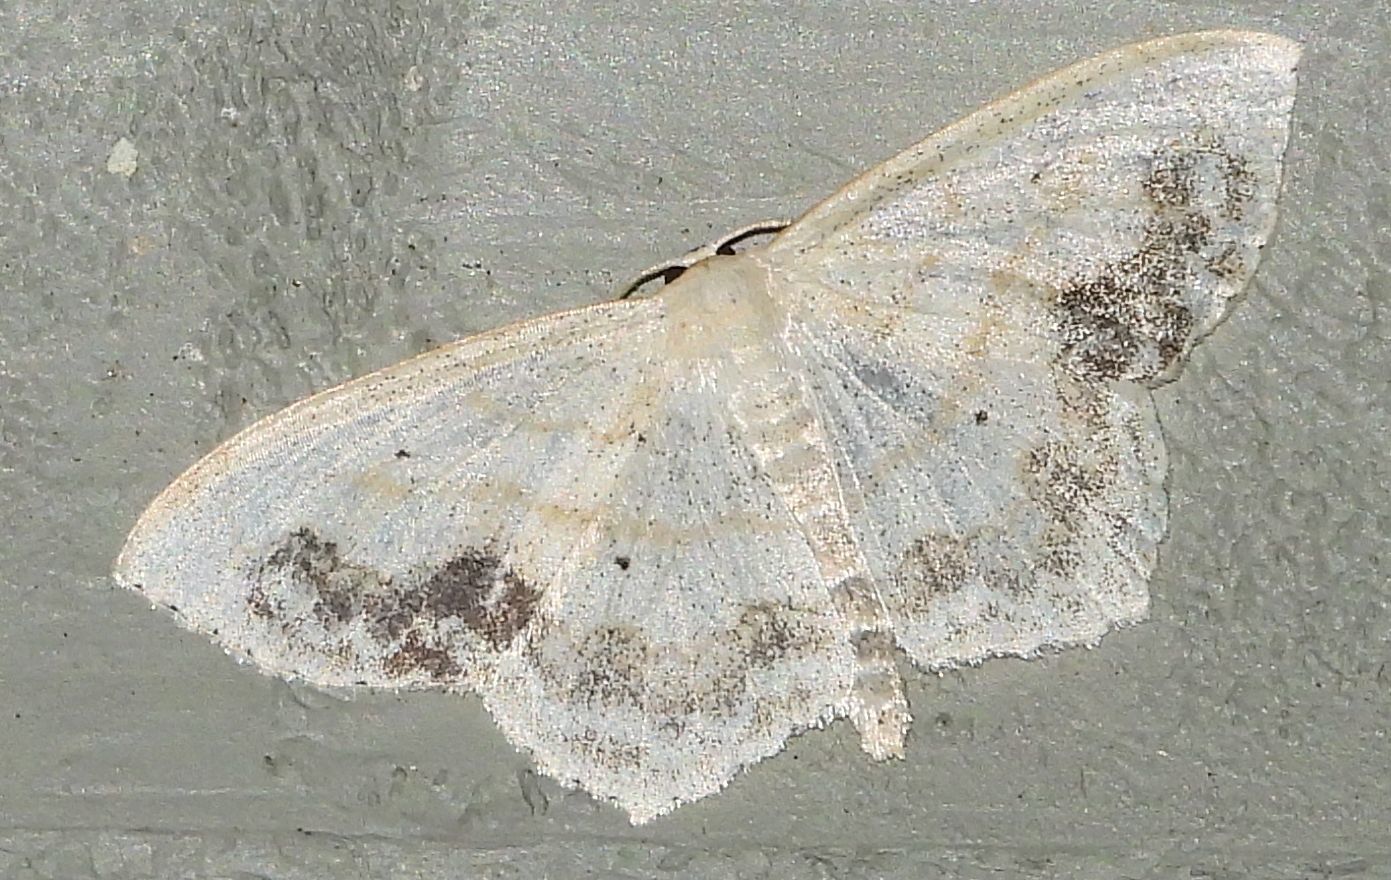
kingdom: Animalia
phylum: Arthropoda
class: Insecta
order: Lepidoptera
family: Geometridae
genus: Scopula
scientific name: Scopula limboundata
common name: Large lace border
